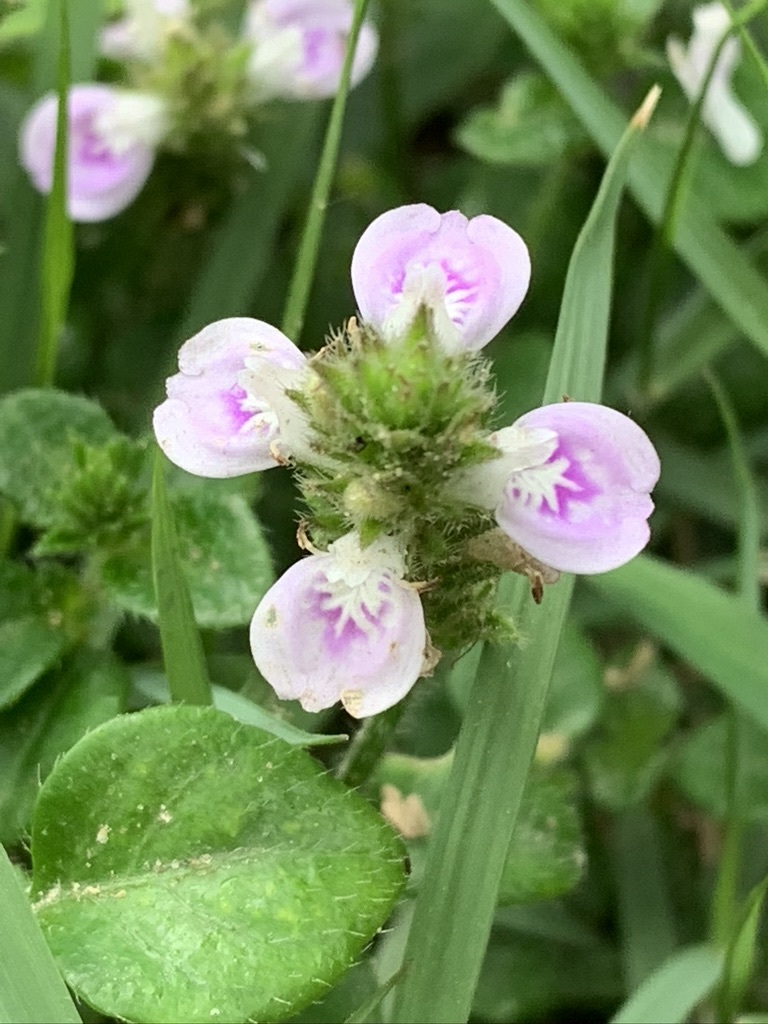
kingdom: Plantae
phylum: Tracheophyta
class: Magnoliopsida
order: Lamiales
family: Acanthaceae
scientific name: Acanthaceae
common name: Acanthaceae
